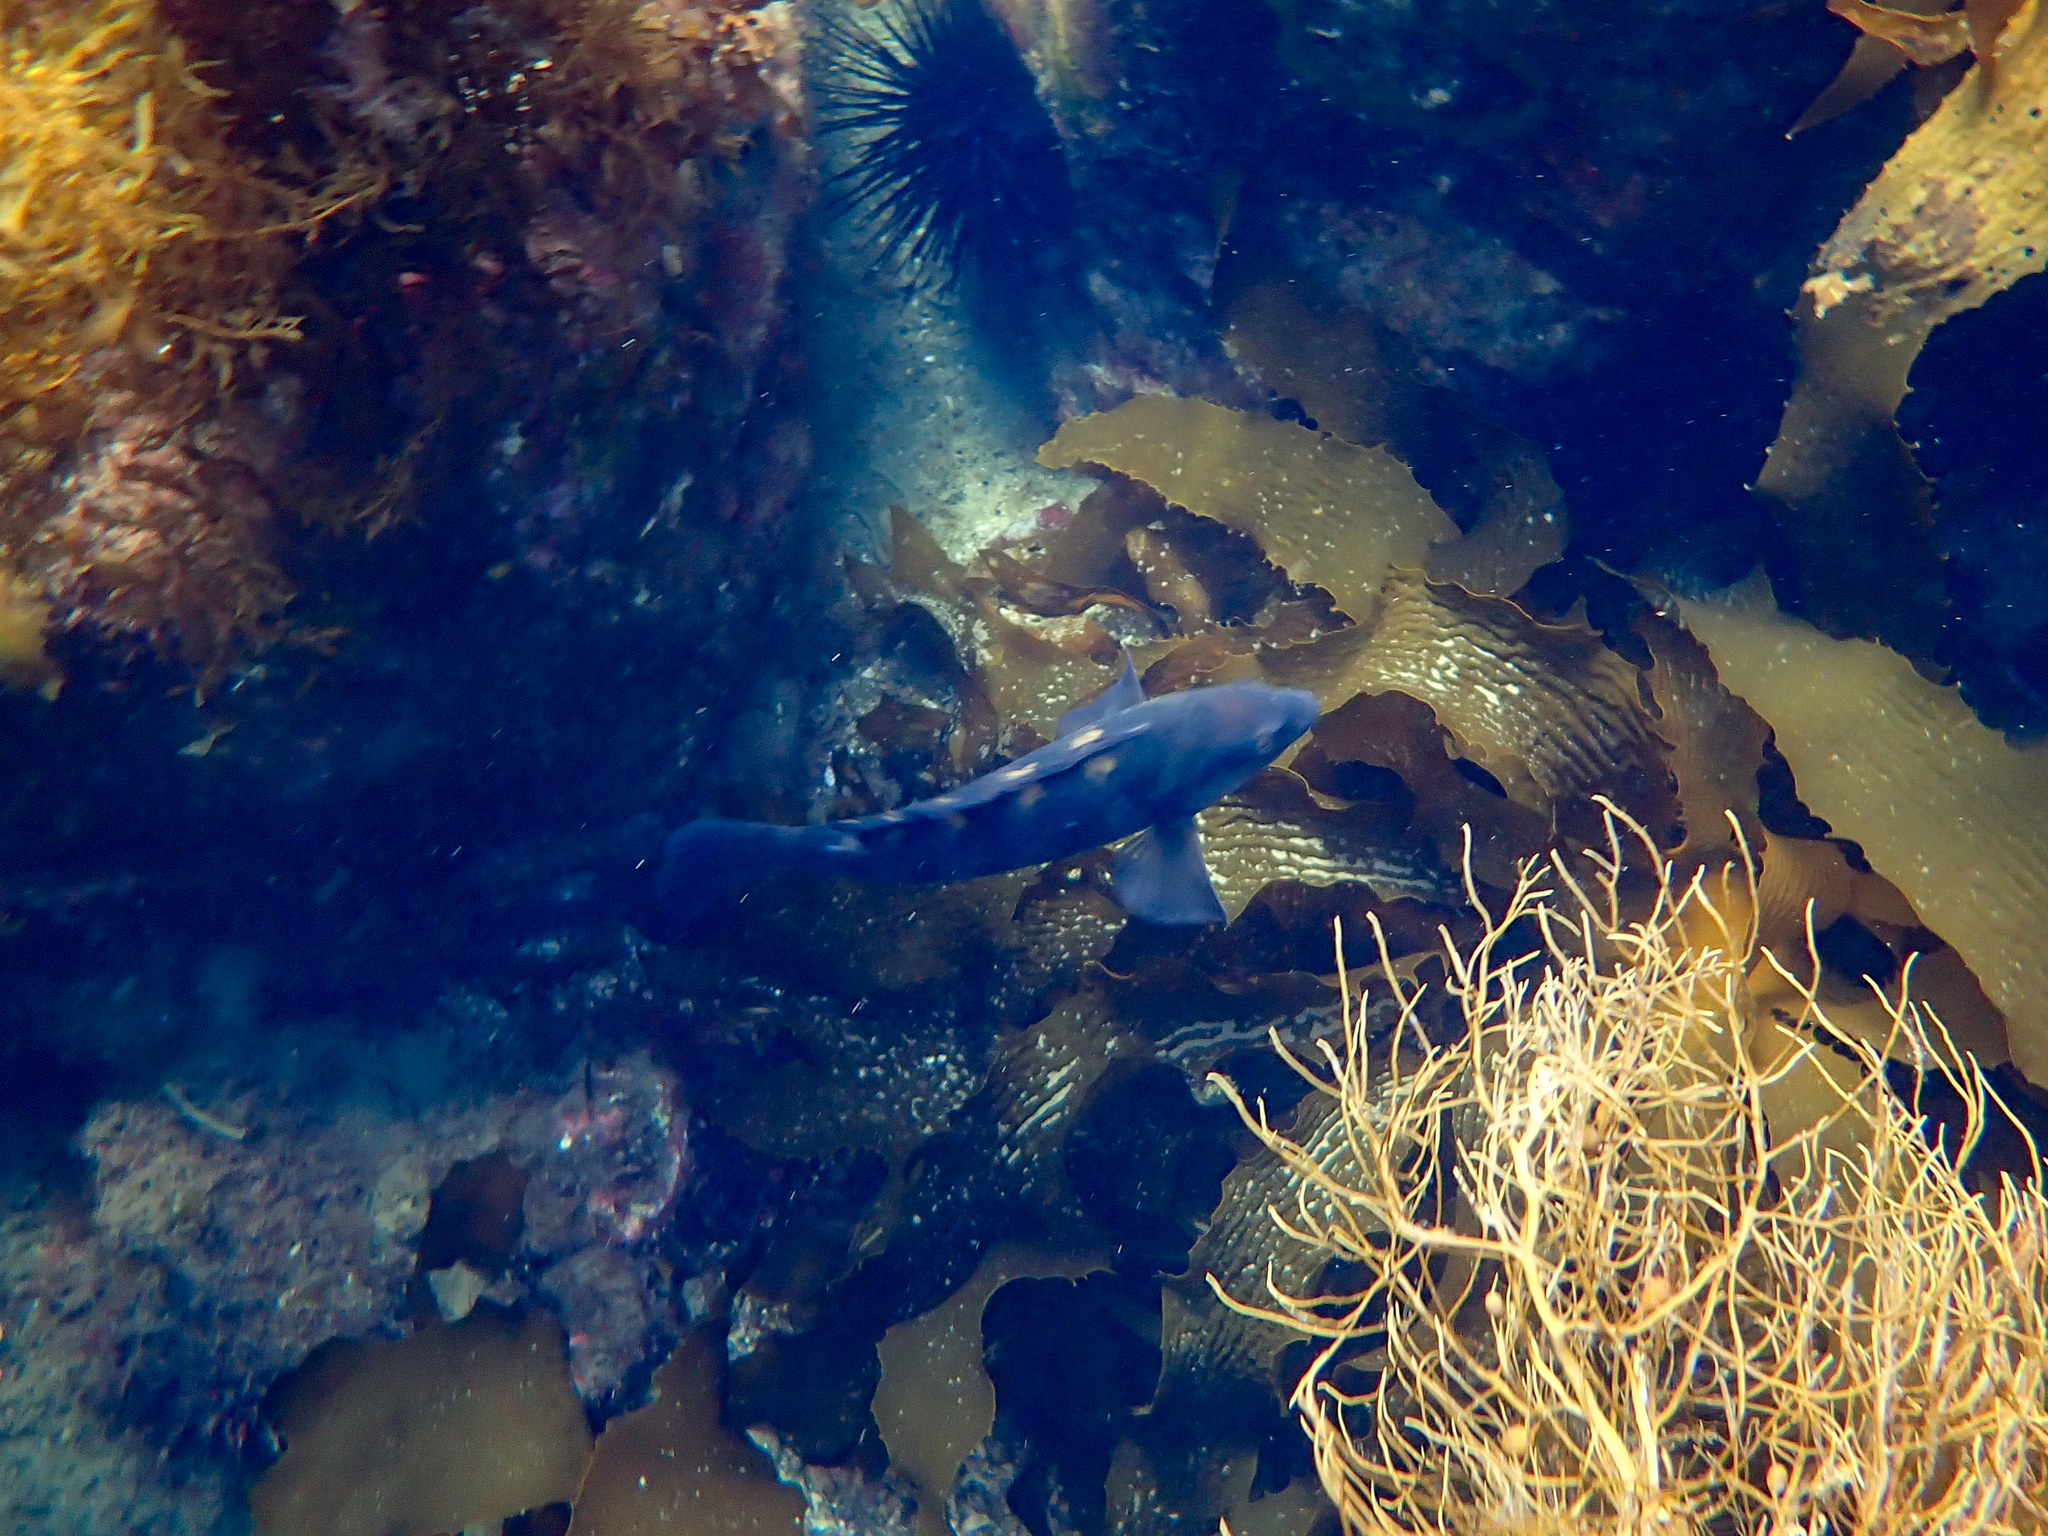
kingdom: Animalia
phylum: Chordata
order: Perciformes
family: Labridae
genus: Notolabrus
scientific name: Notolabrus fucicola
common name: Banded parrotfish
